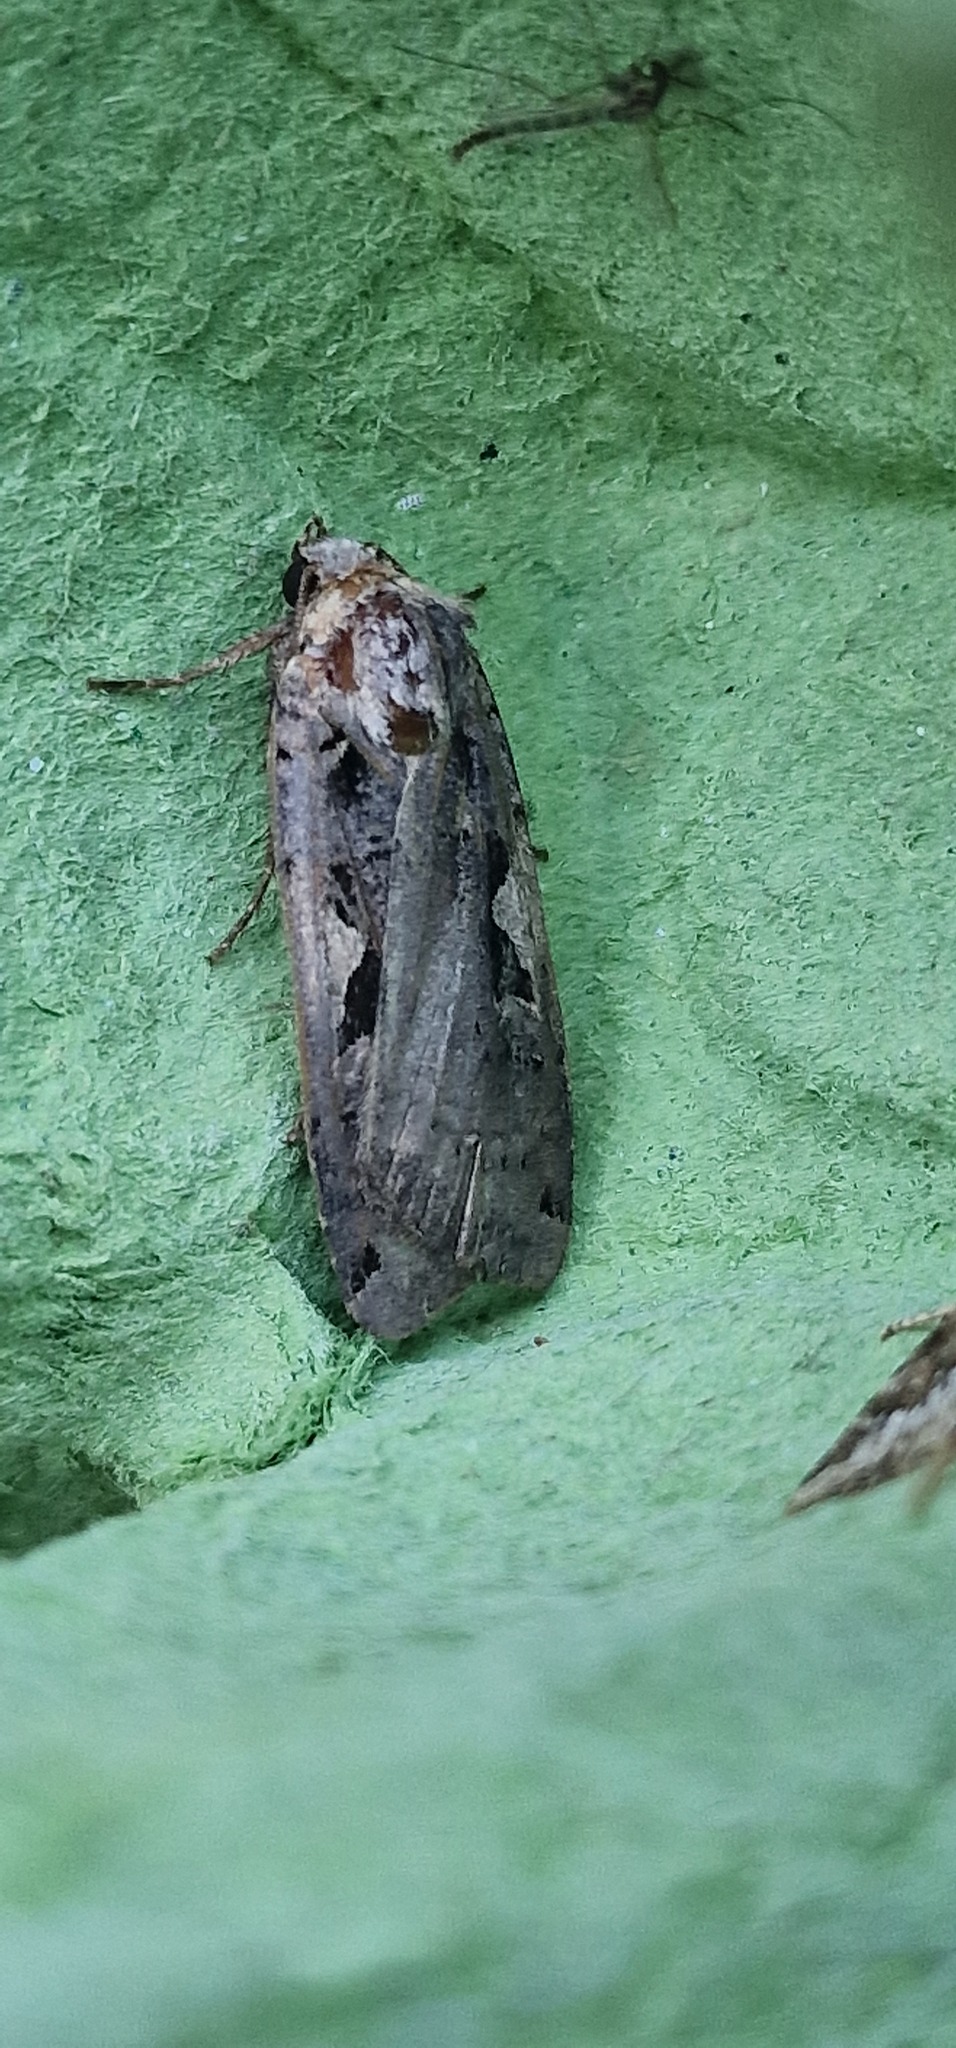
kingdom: Animalia
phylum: Arthropoda
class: Insecta
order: Lepidoptera
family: Noctuidae
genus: Xestia
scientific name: Xestia c-nigrum
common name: Setaceous hebrew character
